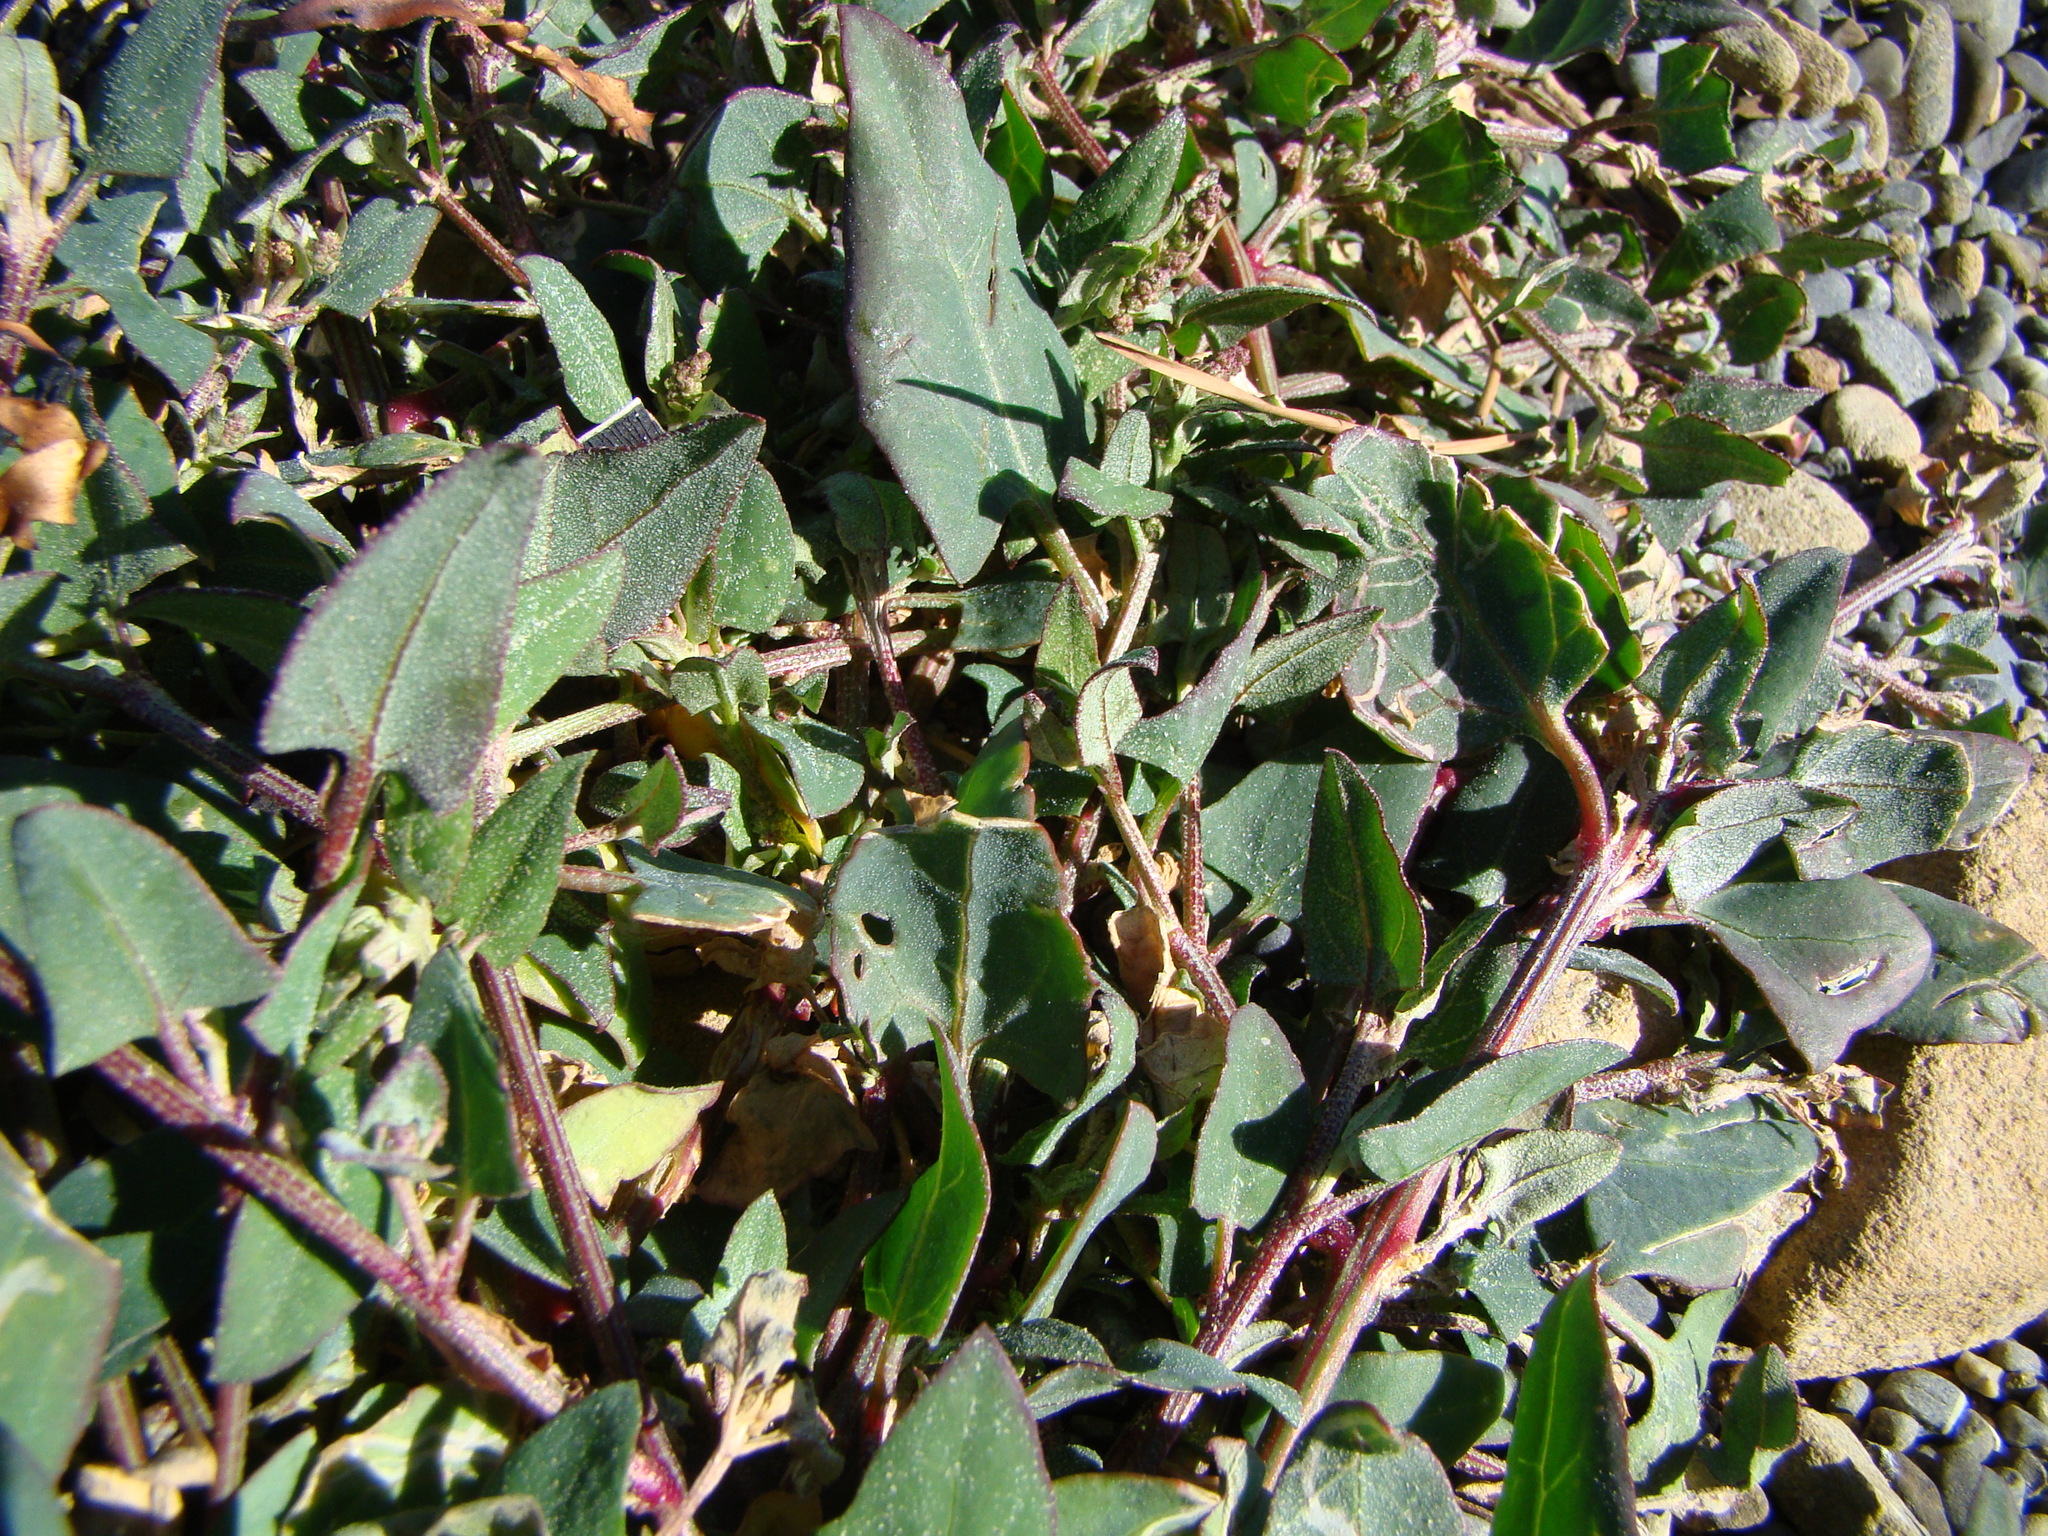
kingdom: Plantae
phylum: Tracheophyta
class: Magnoliopsida
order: Caryophyllales
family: Amaranthaceae
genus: Atriplex
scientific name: Atriplex prostrata
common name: Spear-leaved orache
